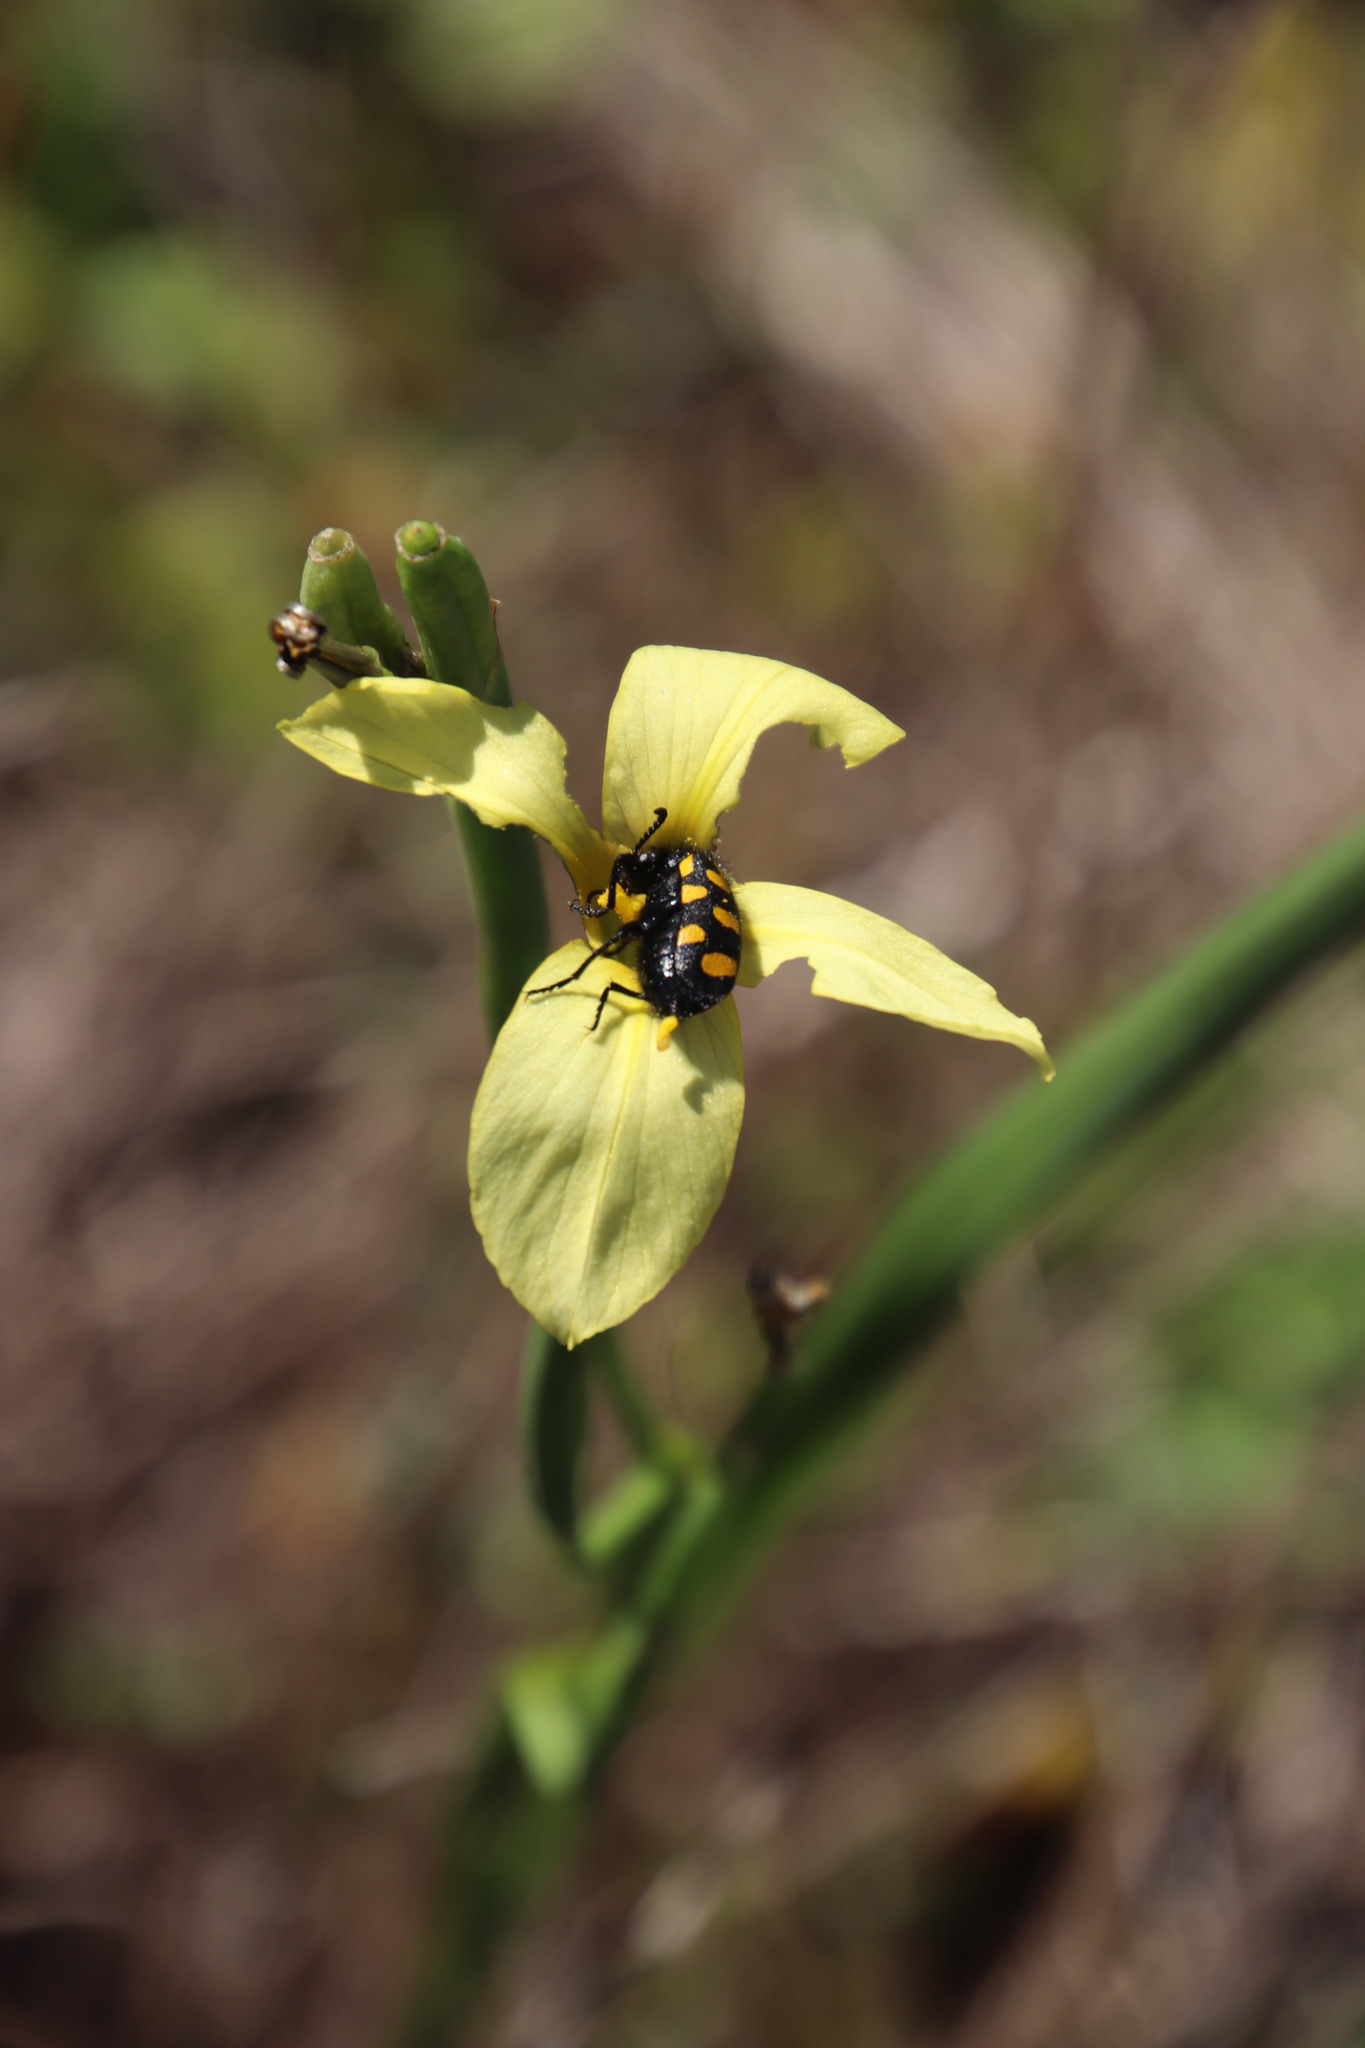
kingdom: Animalia
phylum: Arthropoda
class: Insecta
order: Coleoptera
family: Meloidae
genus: Ceroctis
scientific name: Ceroctis capensis
